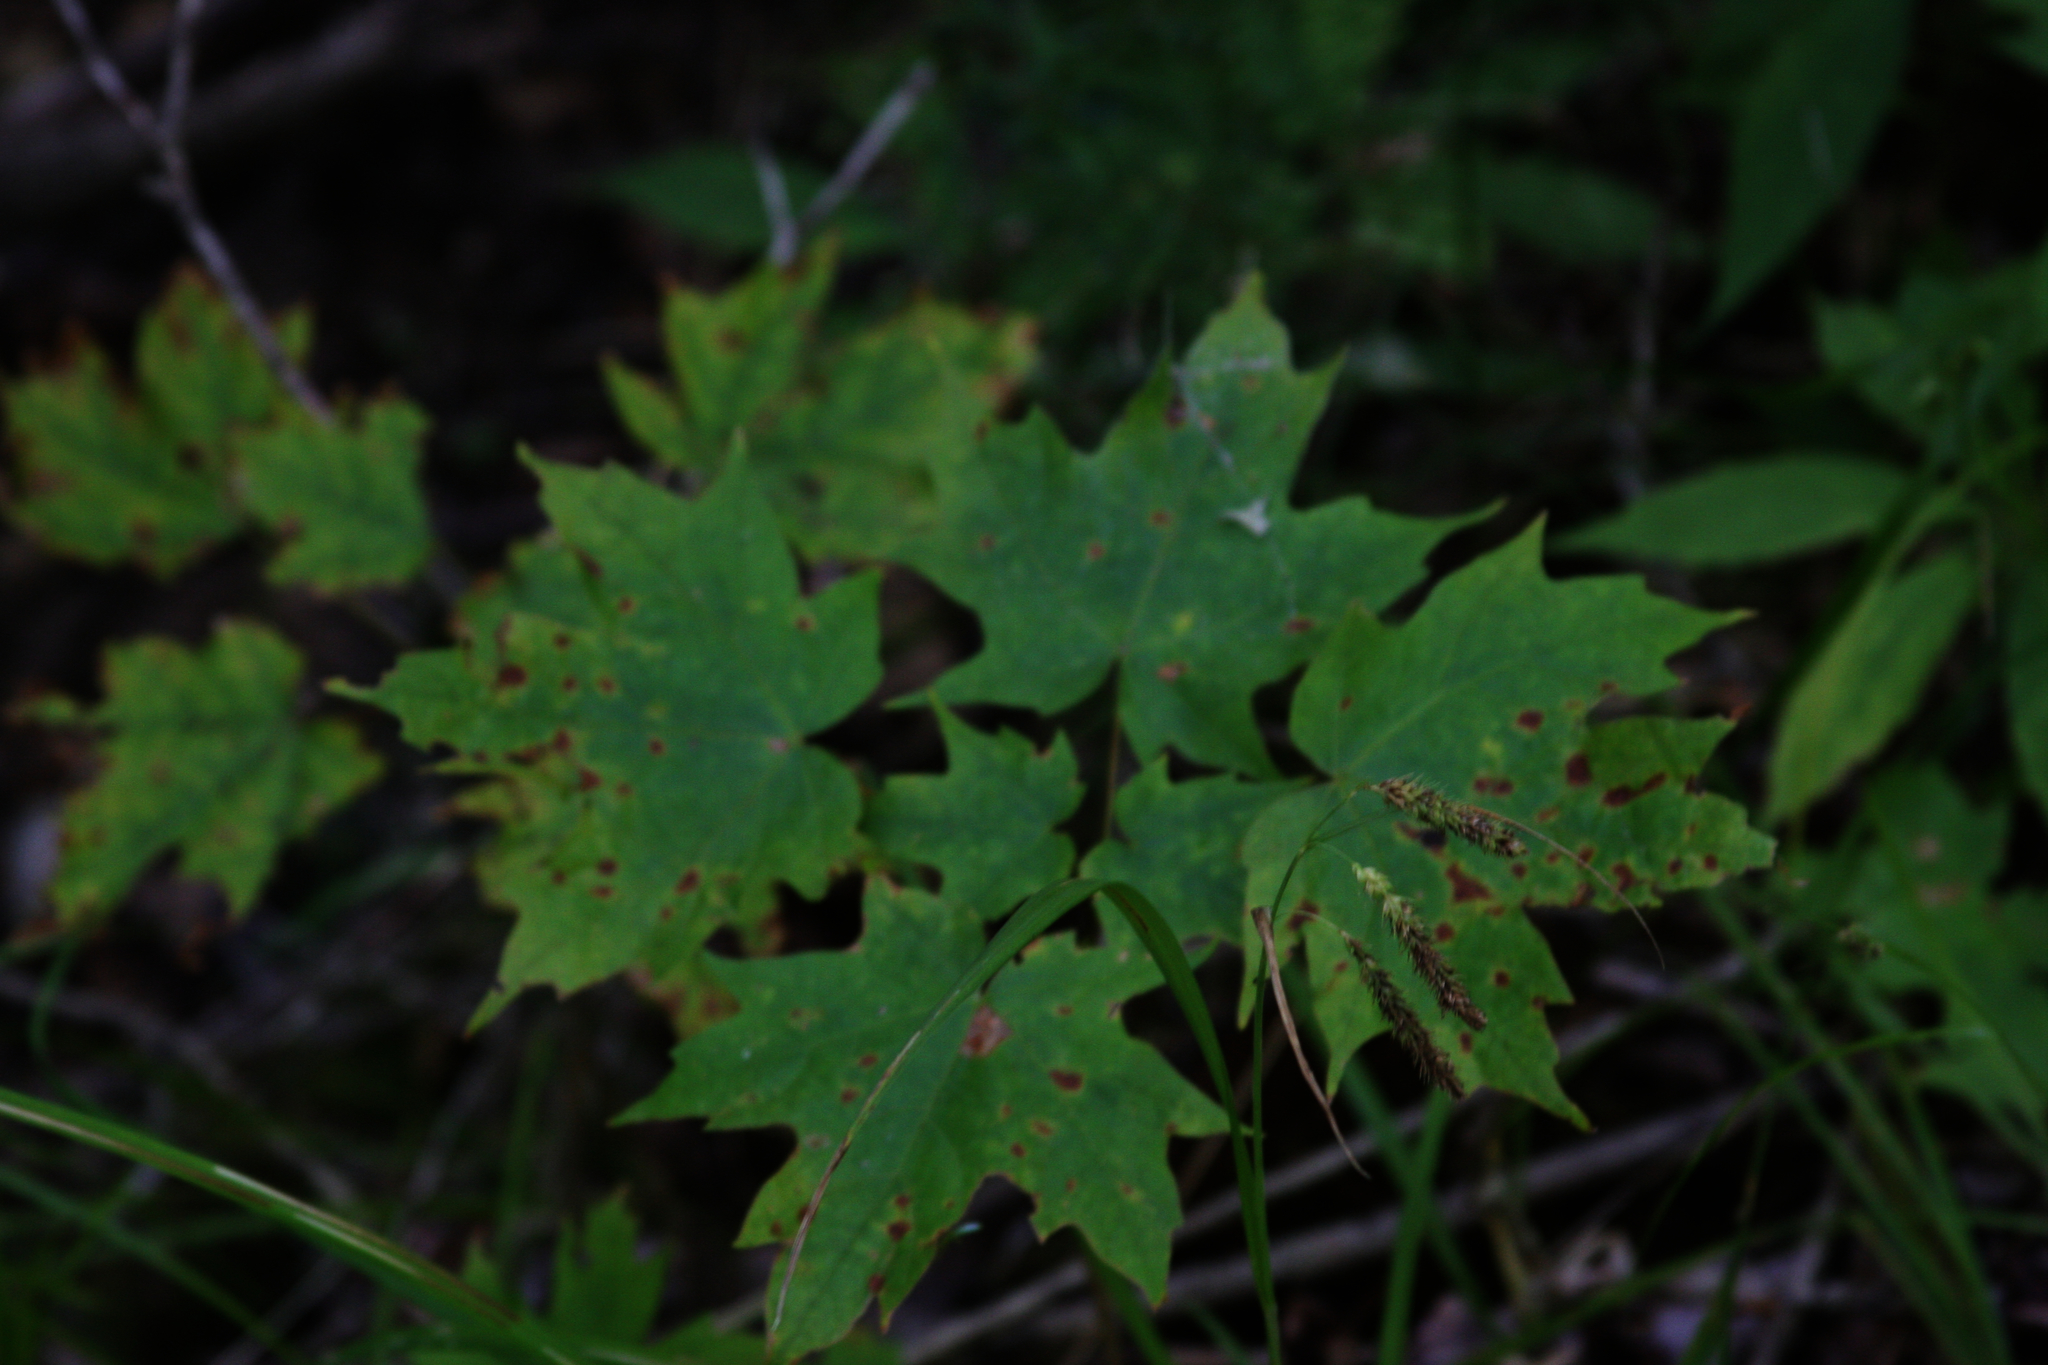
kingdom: Plantae
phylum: Tracheophyta
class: Magnoliopsida
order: Sapindales
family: Sapindaceae
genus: Acer
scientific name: Acer saccharum
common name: Sugar maple
